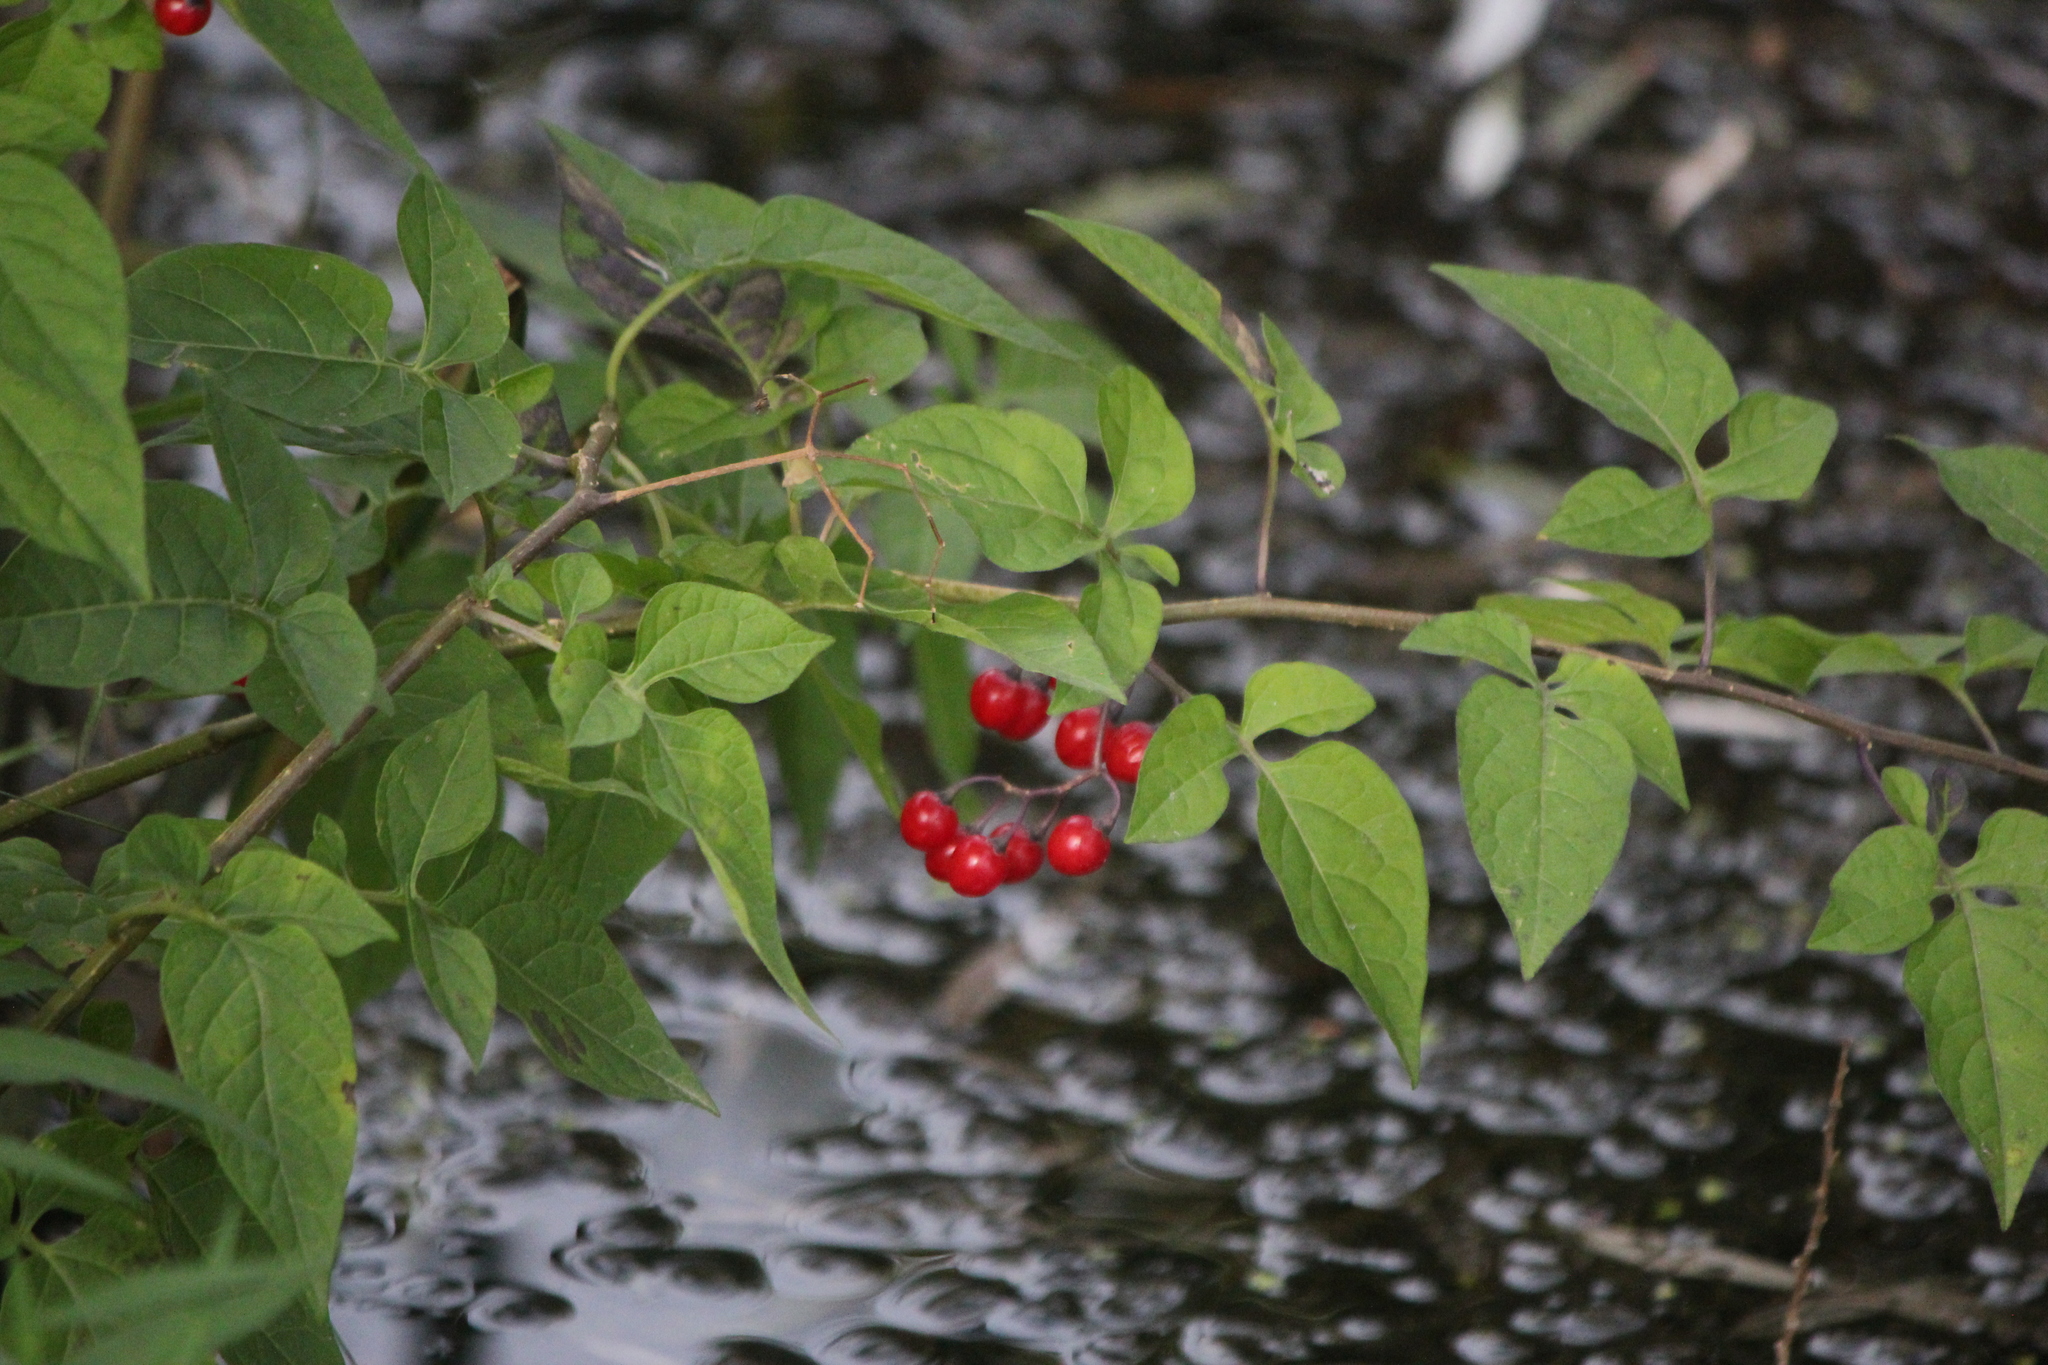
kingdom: Plantae
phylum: Tracheophyta
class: Magnoliopsida
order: Solanales
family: Solanaceae
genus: Solanum
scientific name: Solanum dulcamara
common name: Climbing nightshade
